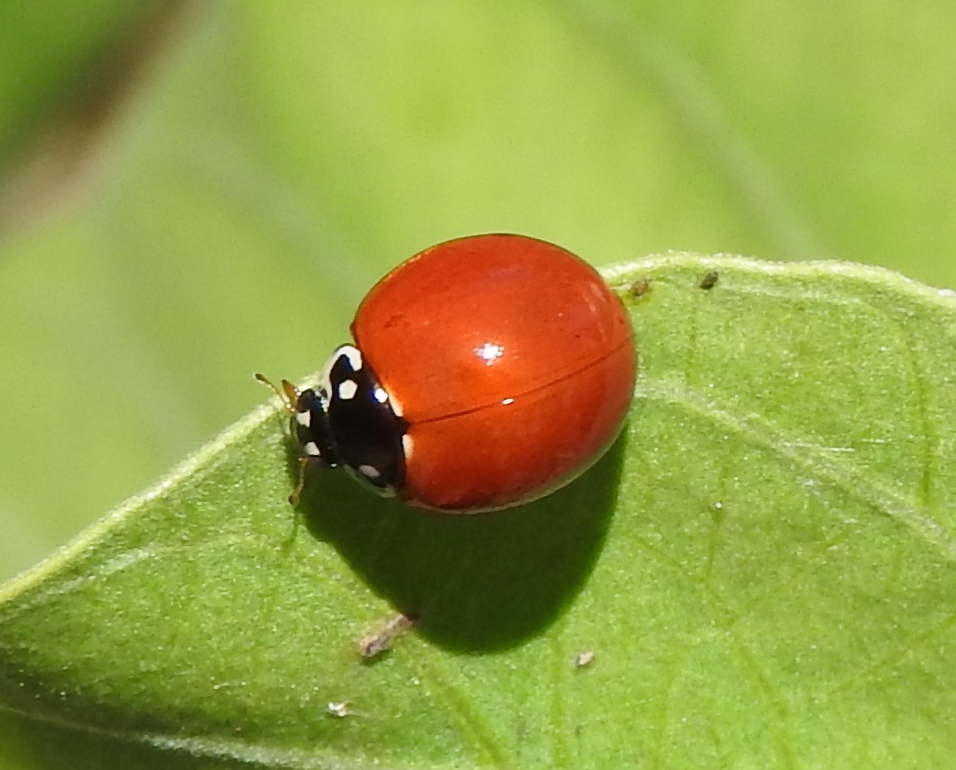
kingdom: Animalia
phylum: Arthropoda
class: Insecta
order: Coleoptera
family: Coccinellidae
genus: Cycloneda
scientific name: Cycloneda sanguinea
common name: Ladybird beetle
